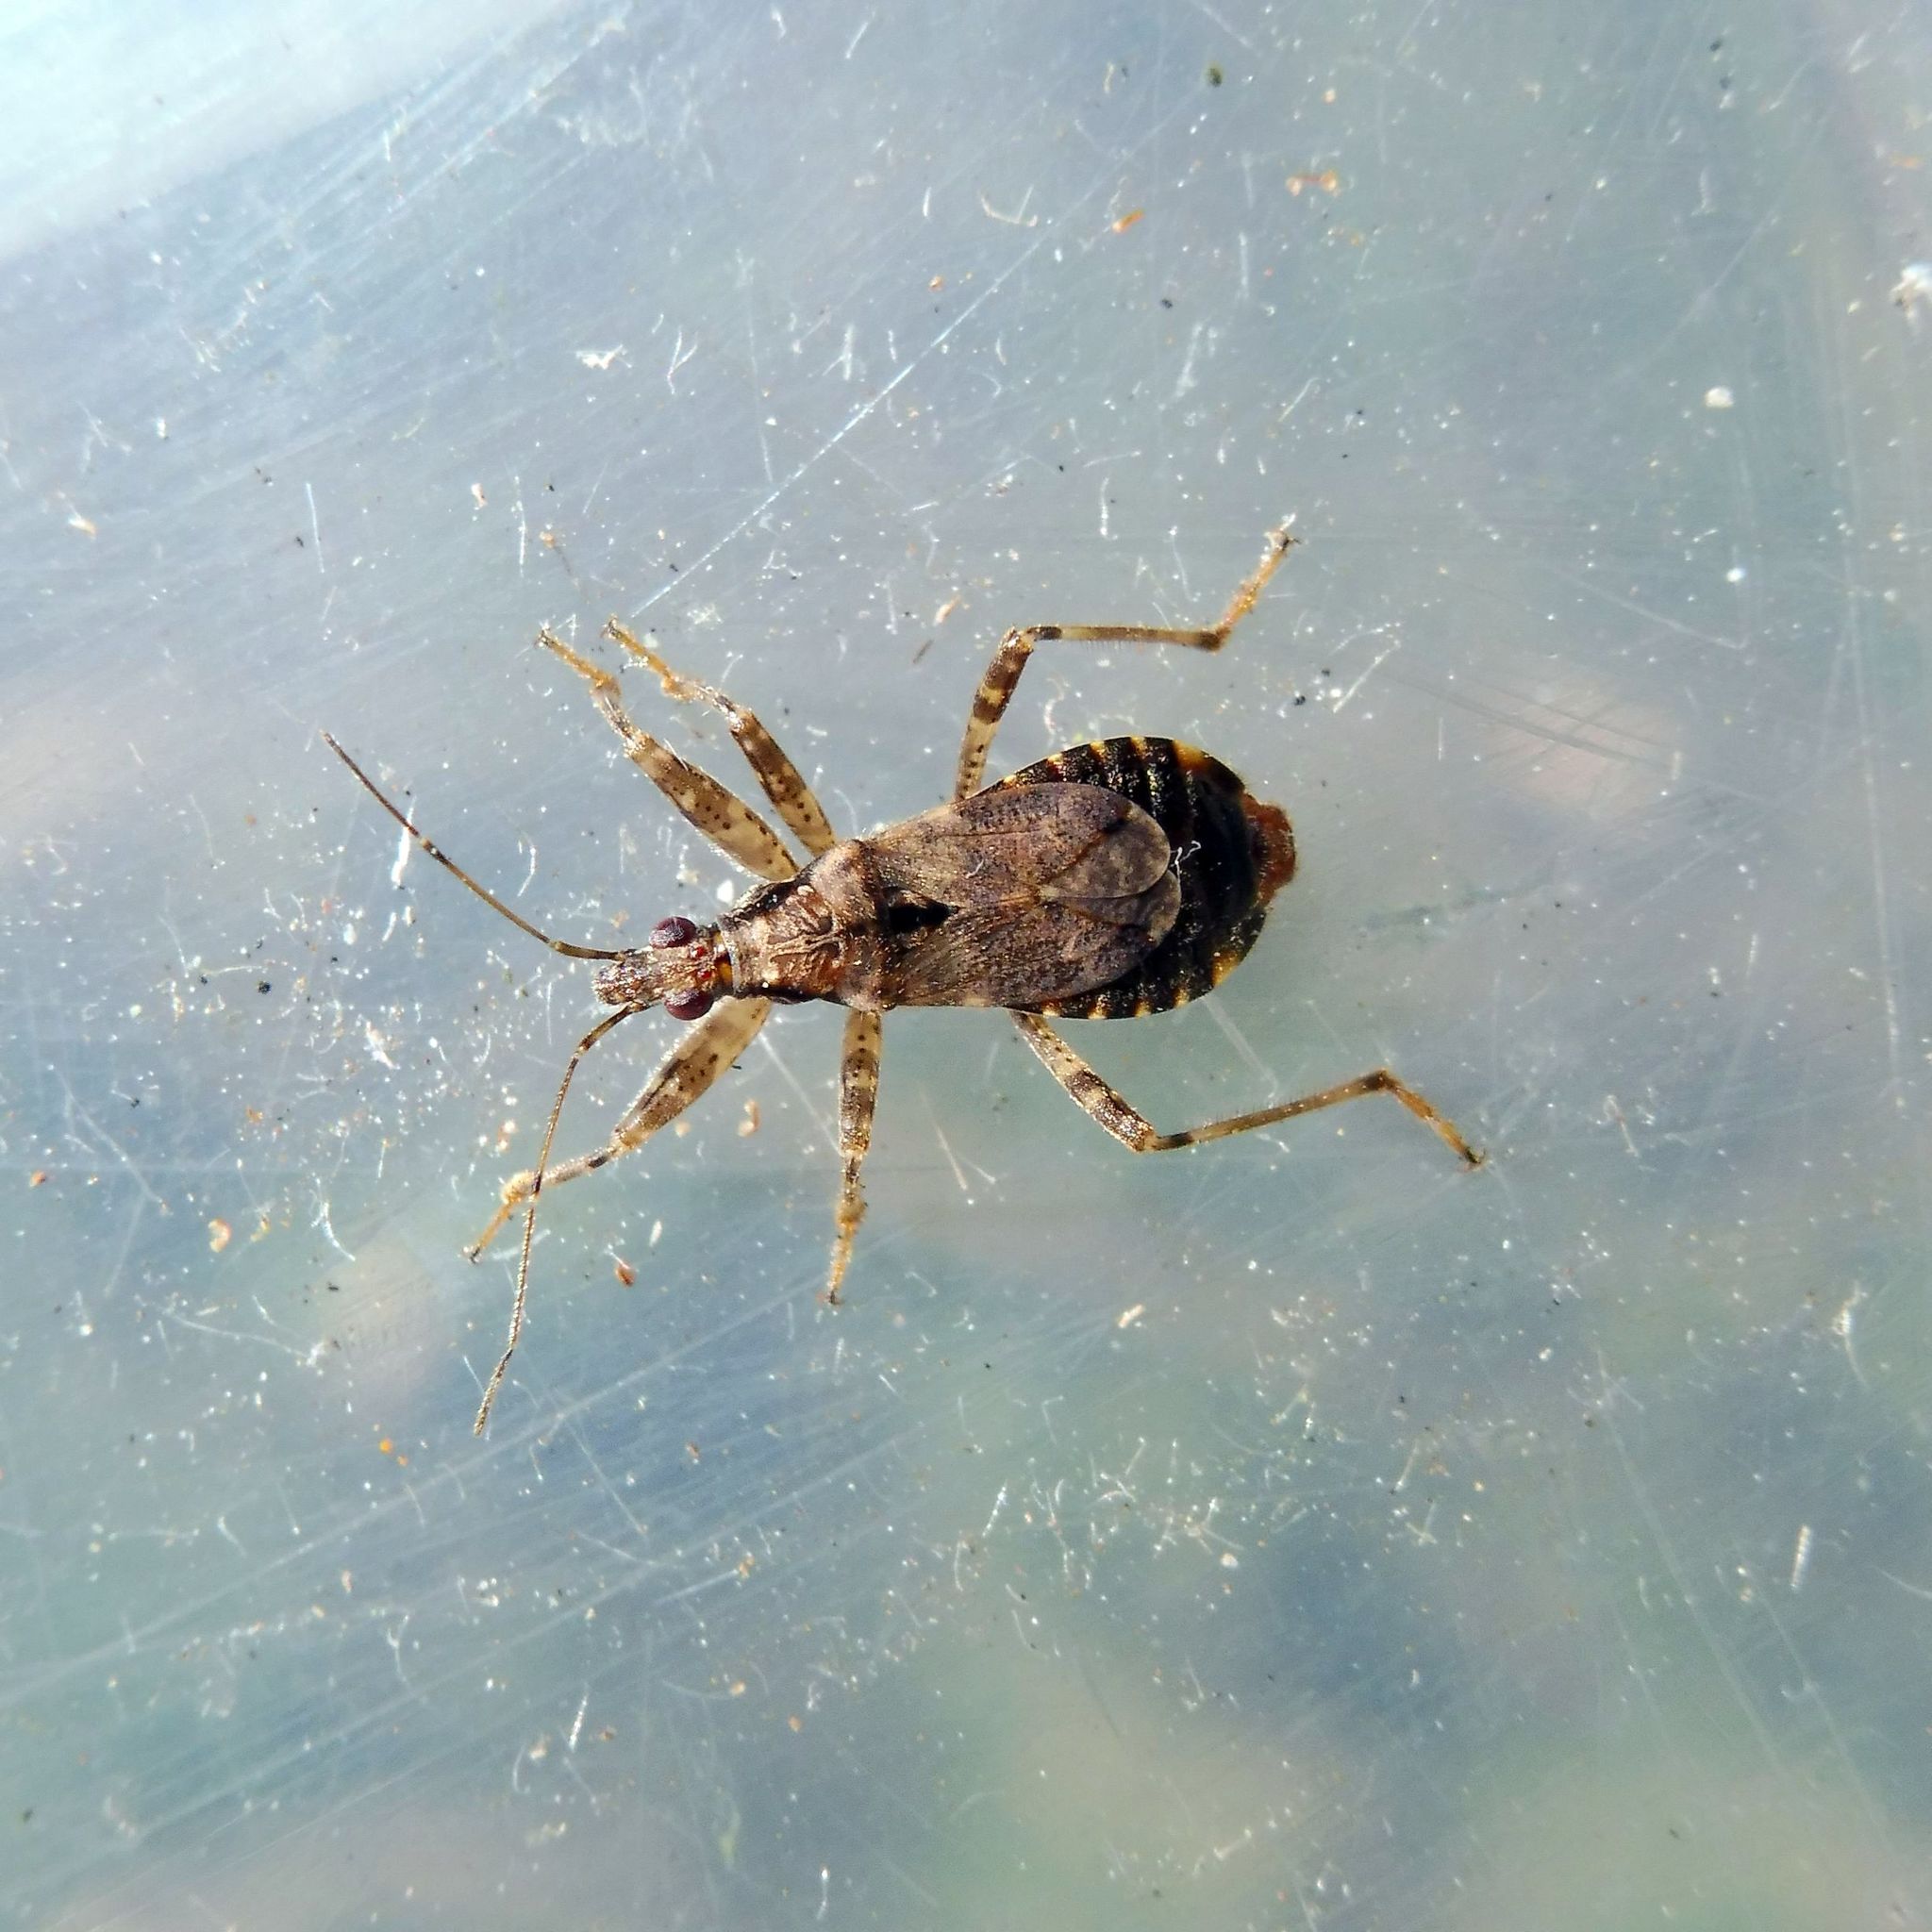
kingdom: Animalia
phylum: Arthropoda
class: Insecta
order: Hemiptera
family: Nabidae
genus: Himacerus
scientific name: Himacerus mirmicoides
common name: Ant damsel bug
